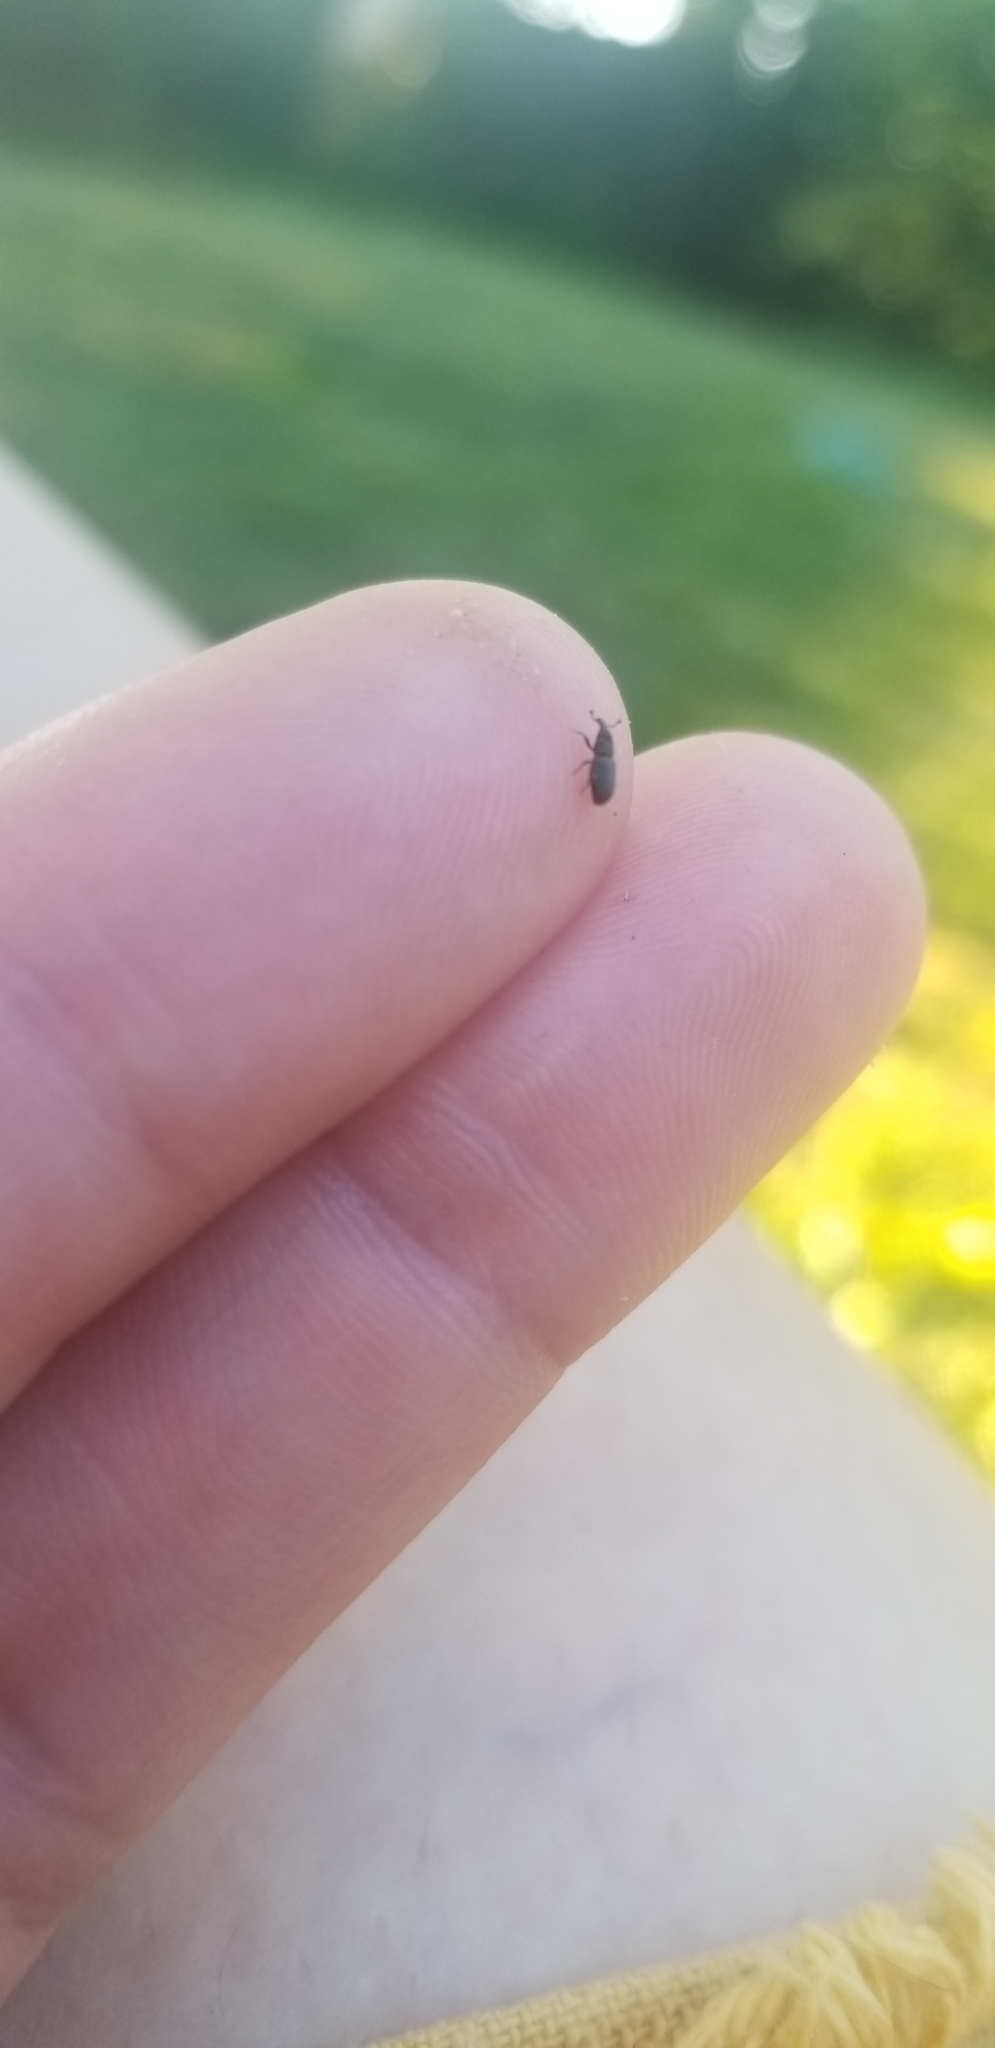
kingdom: Animalia
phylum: Arthropoda
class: Insecta
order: Coleoptera
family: Dryophthoridae
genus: Dryophthorus
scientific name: Dryophthorus americanus
